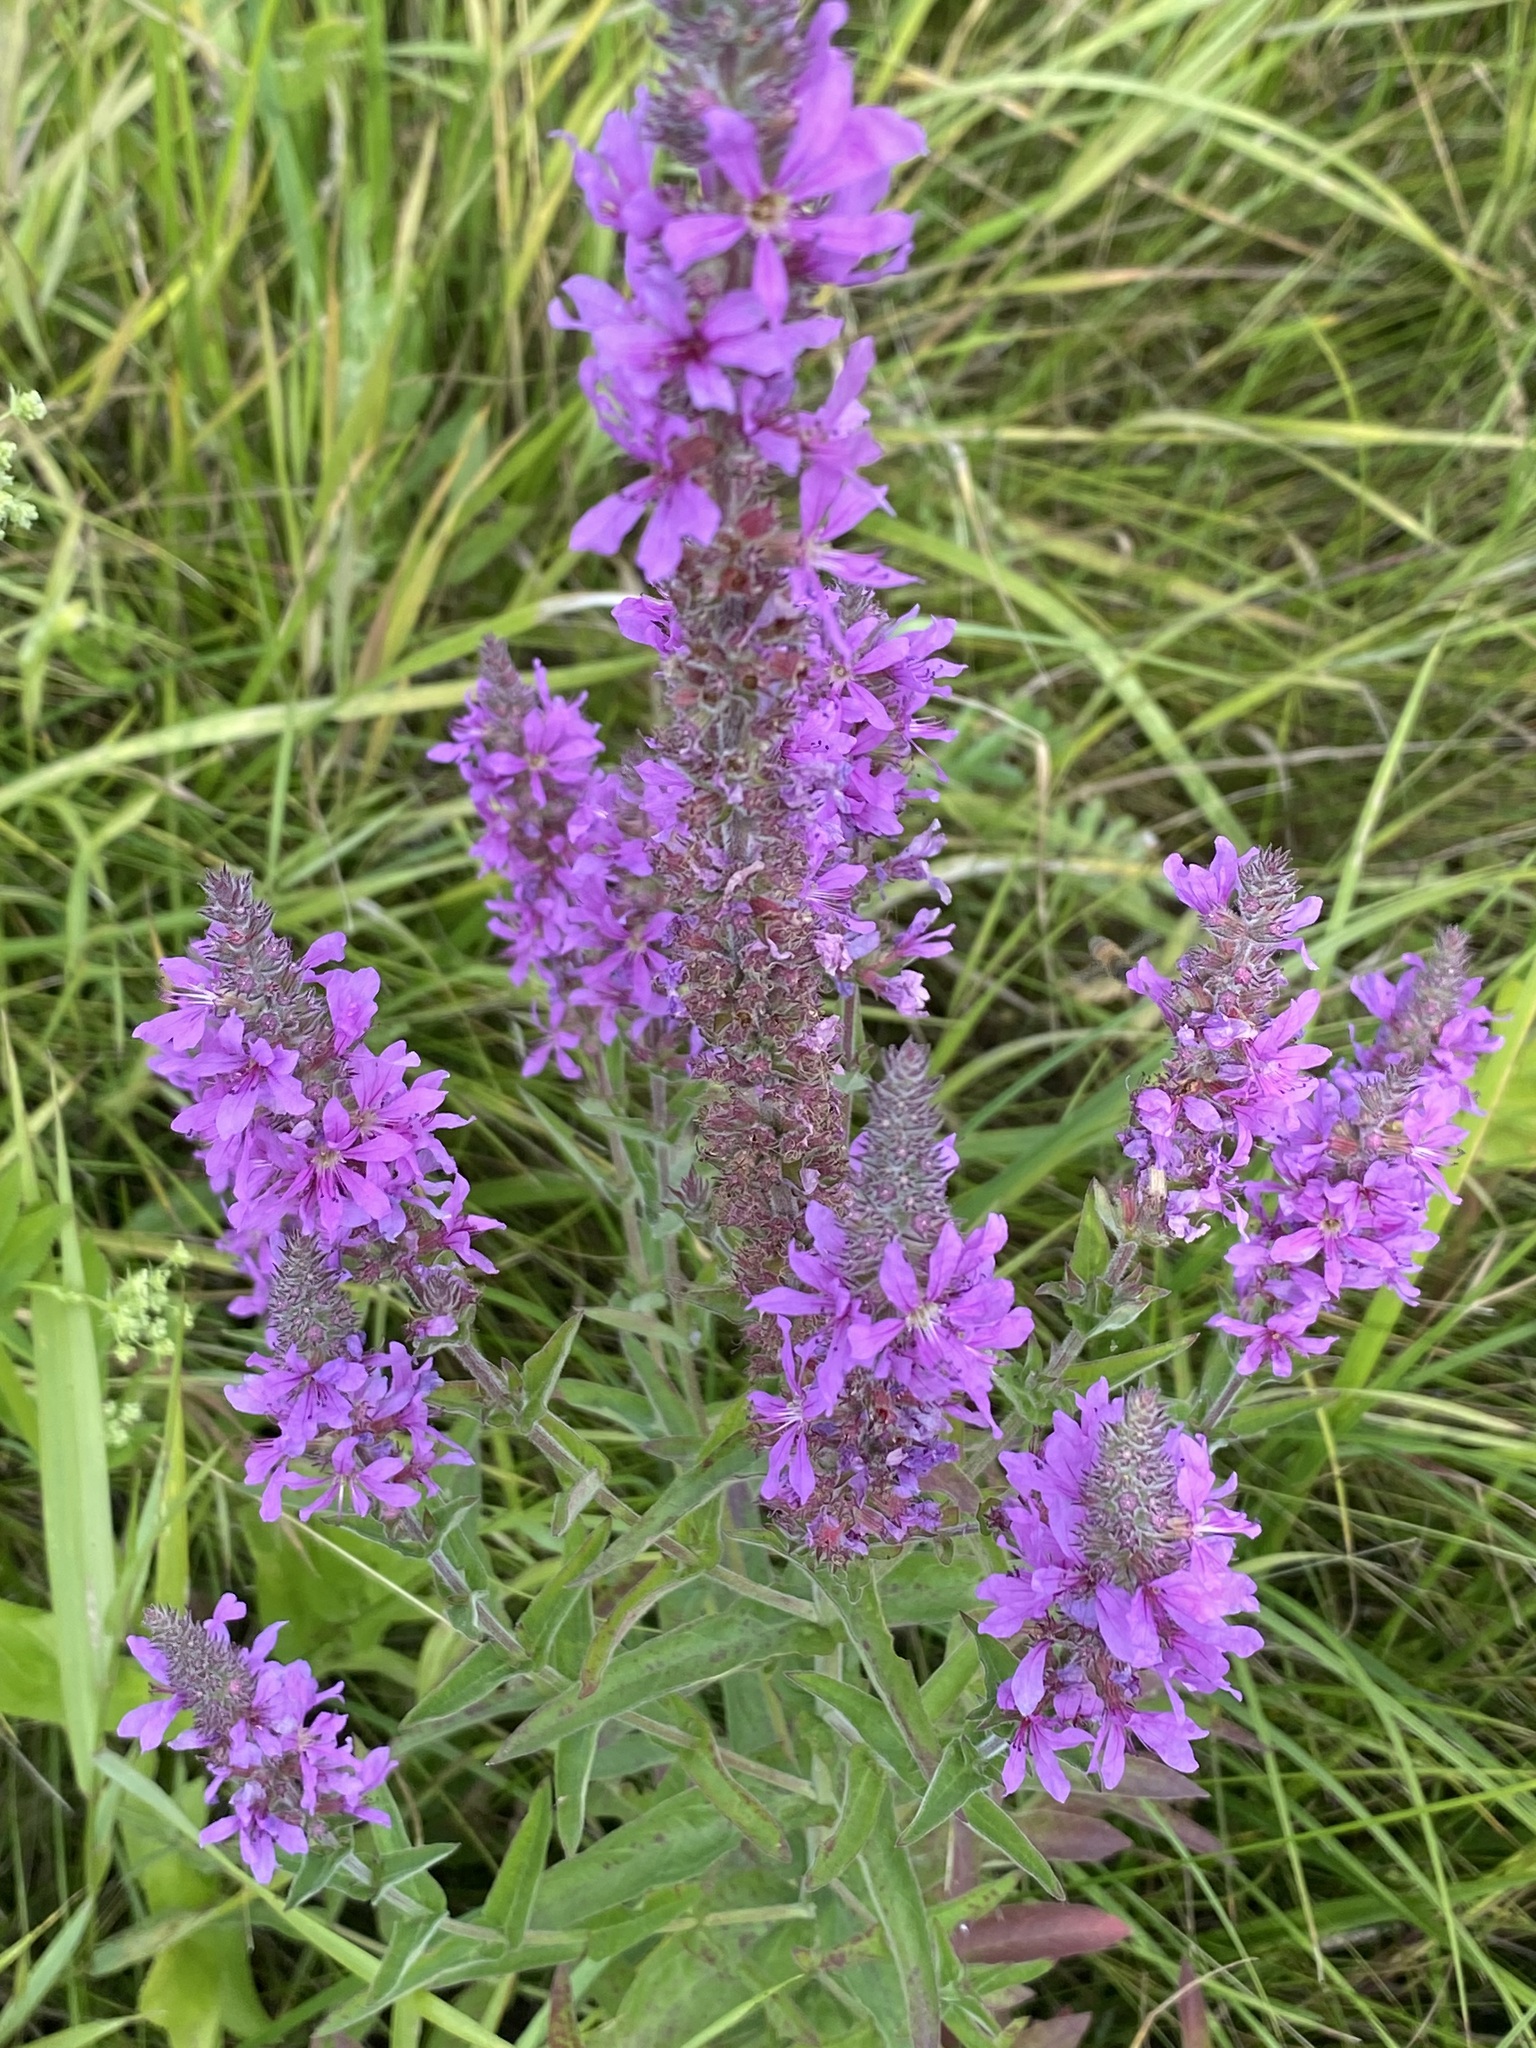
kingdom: Plantae
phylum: Tracheophyta
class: Magnoliopsida
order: Myrtales
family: Lythraceae
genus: Lythrum
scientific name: Lythrum salicaria
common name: Purple loosestrife
